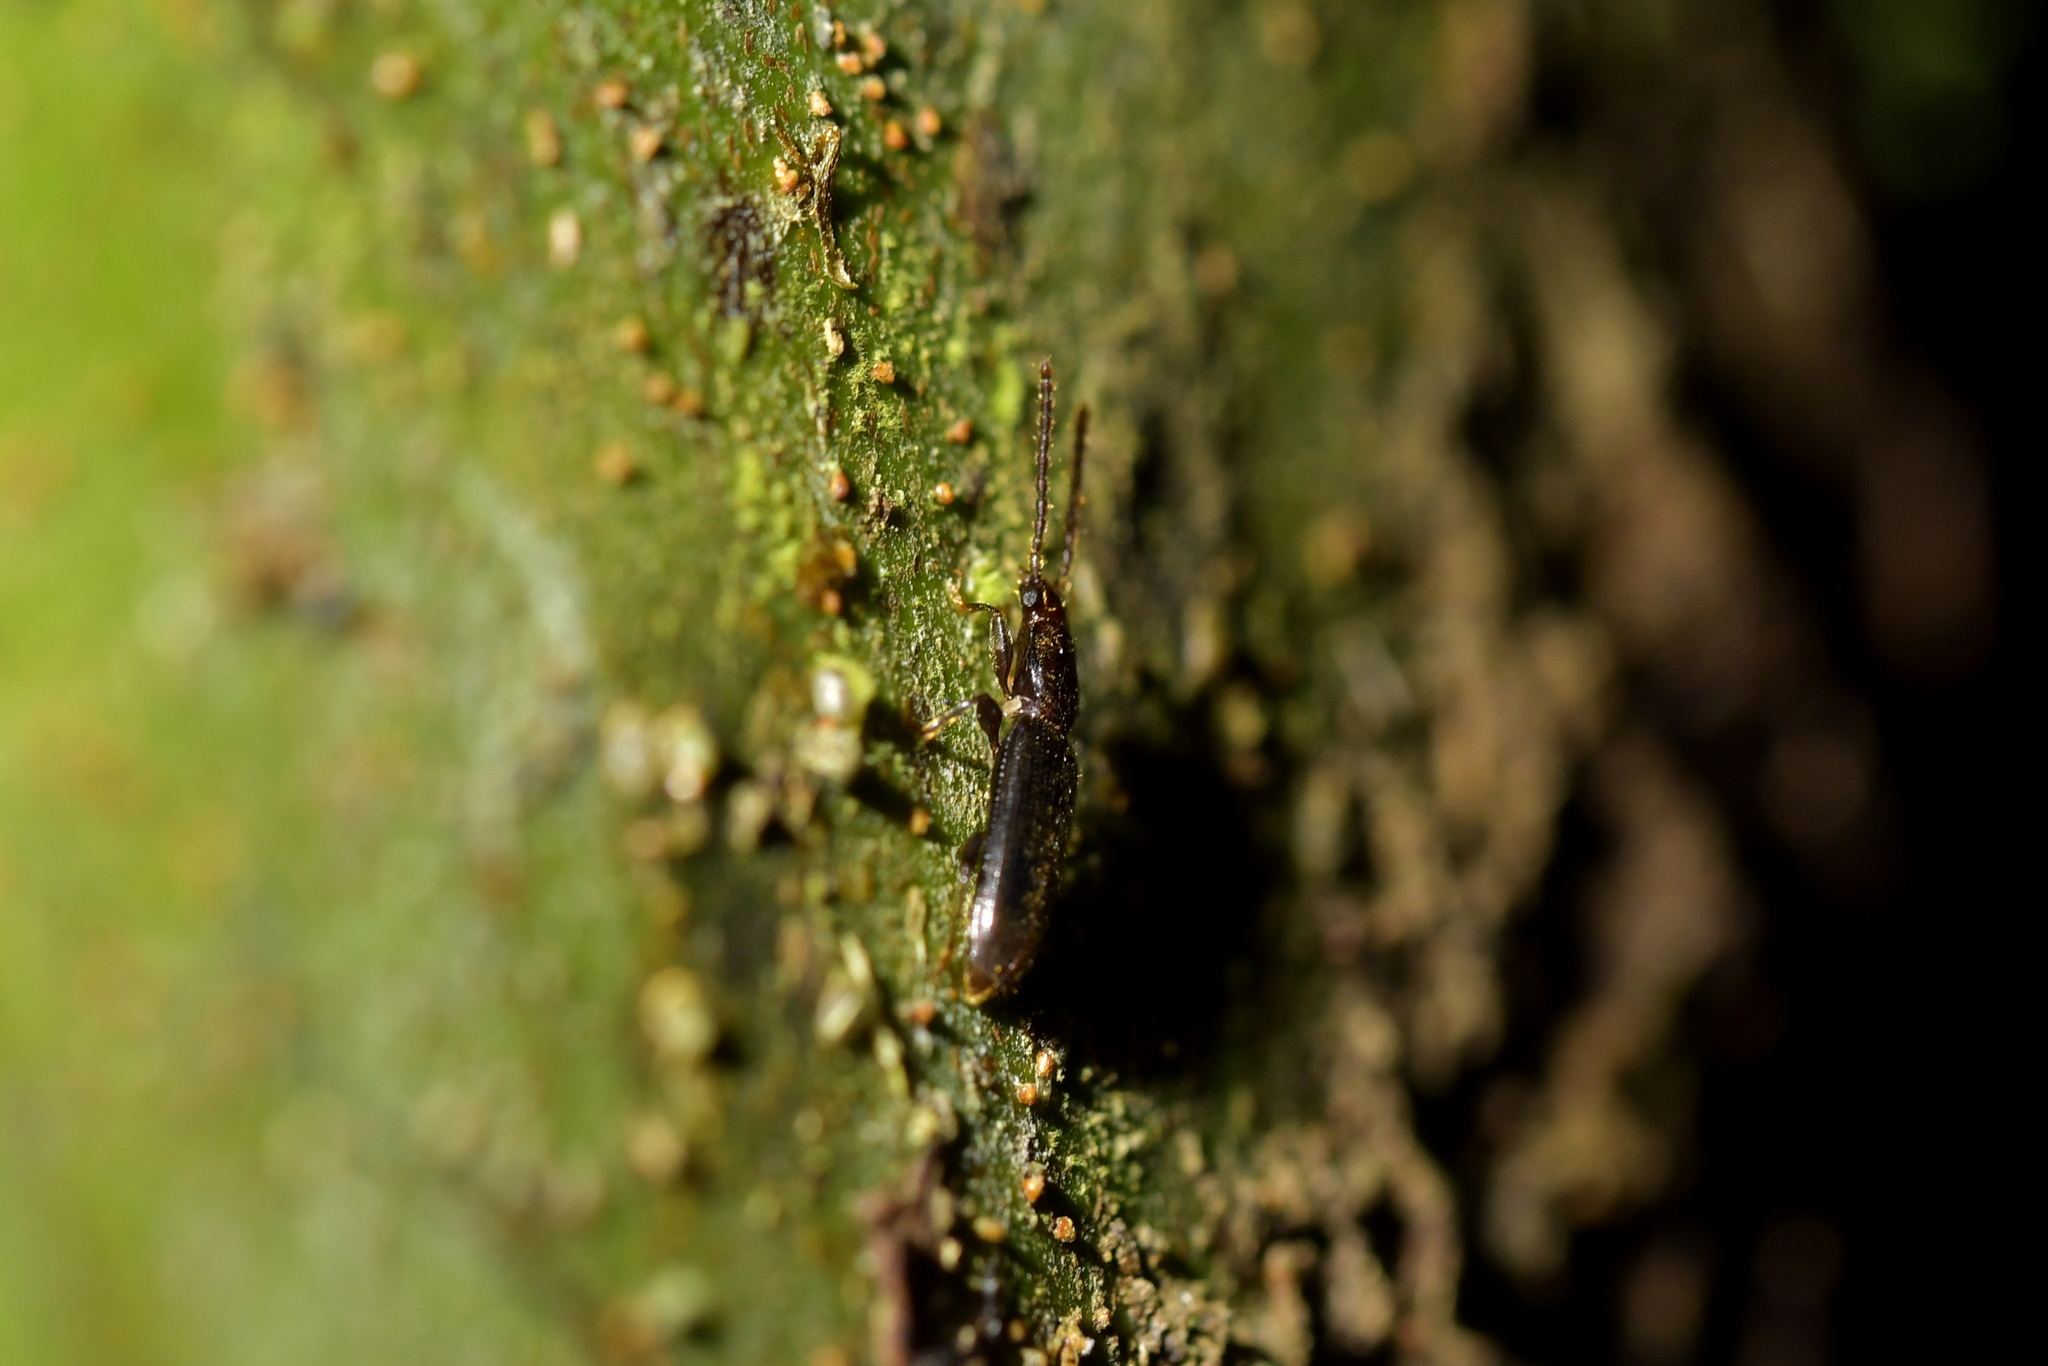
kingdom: Animalia
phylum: Arthropoda
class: Insecta
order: Coleoptera
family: Silvanidae
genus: Cryptamorpha
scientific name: Cryptamorpha brevicornis
